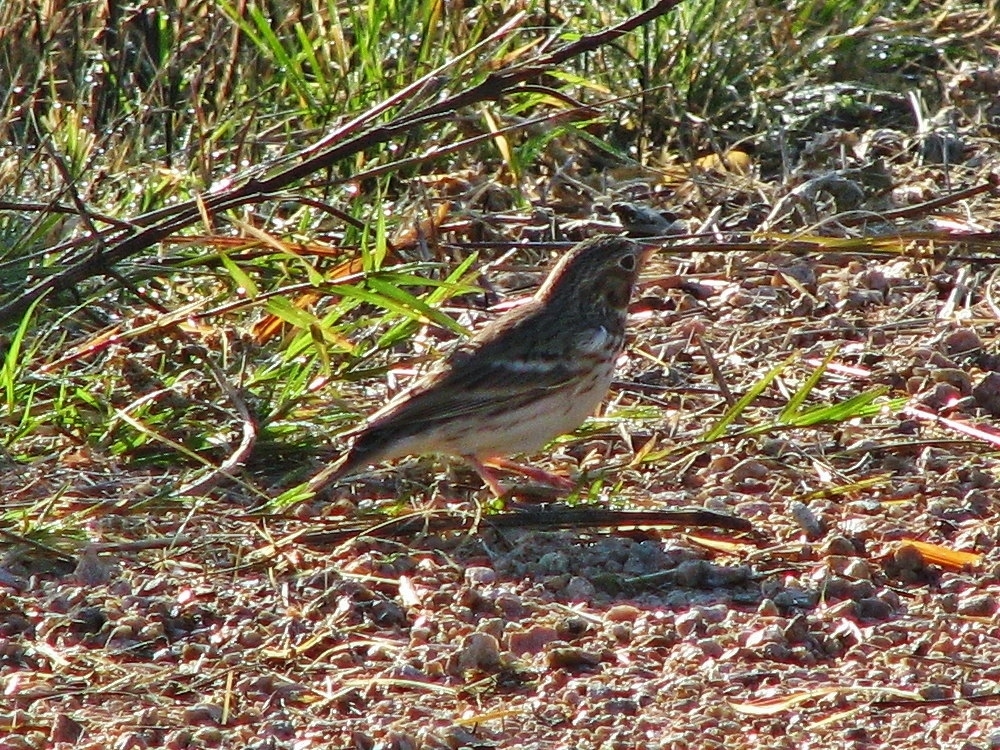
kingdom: Animalia
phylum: Chordata
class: Aves
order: Passeriformes
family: Passerellidae
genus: Pooecetes
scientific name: Pooecetes gramineus
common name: Vesper sparrow
